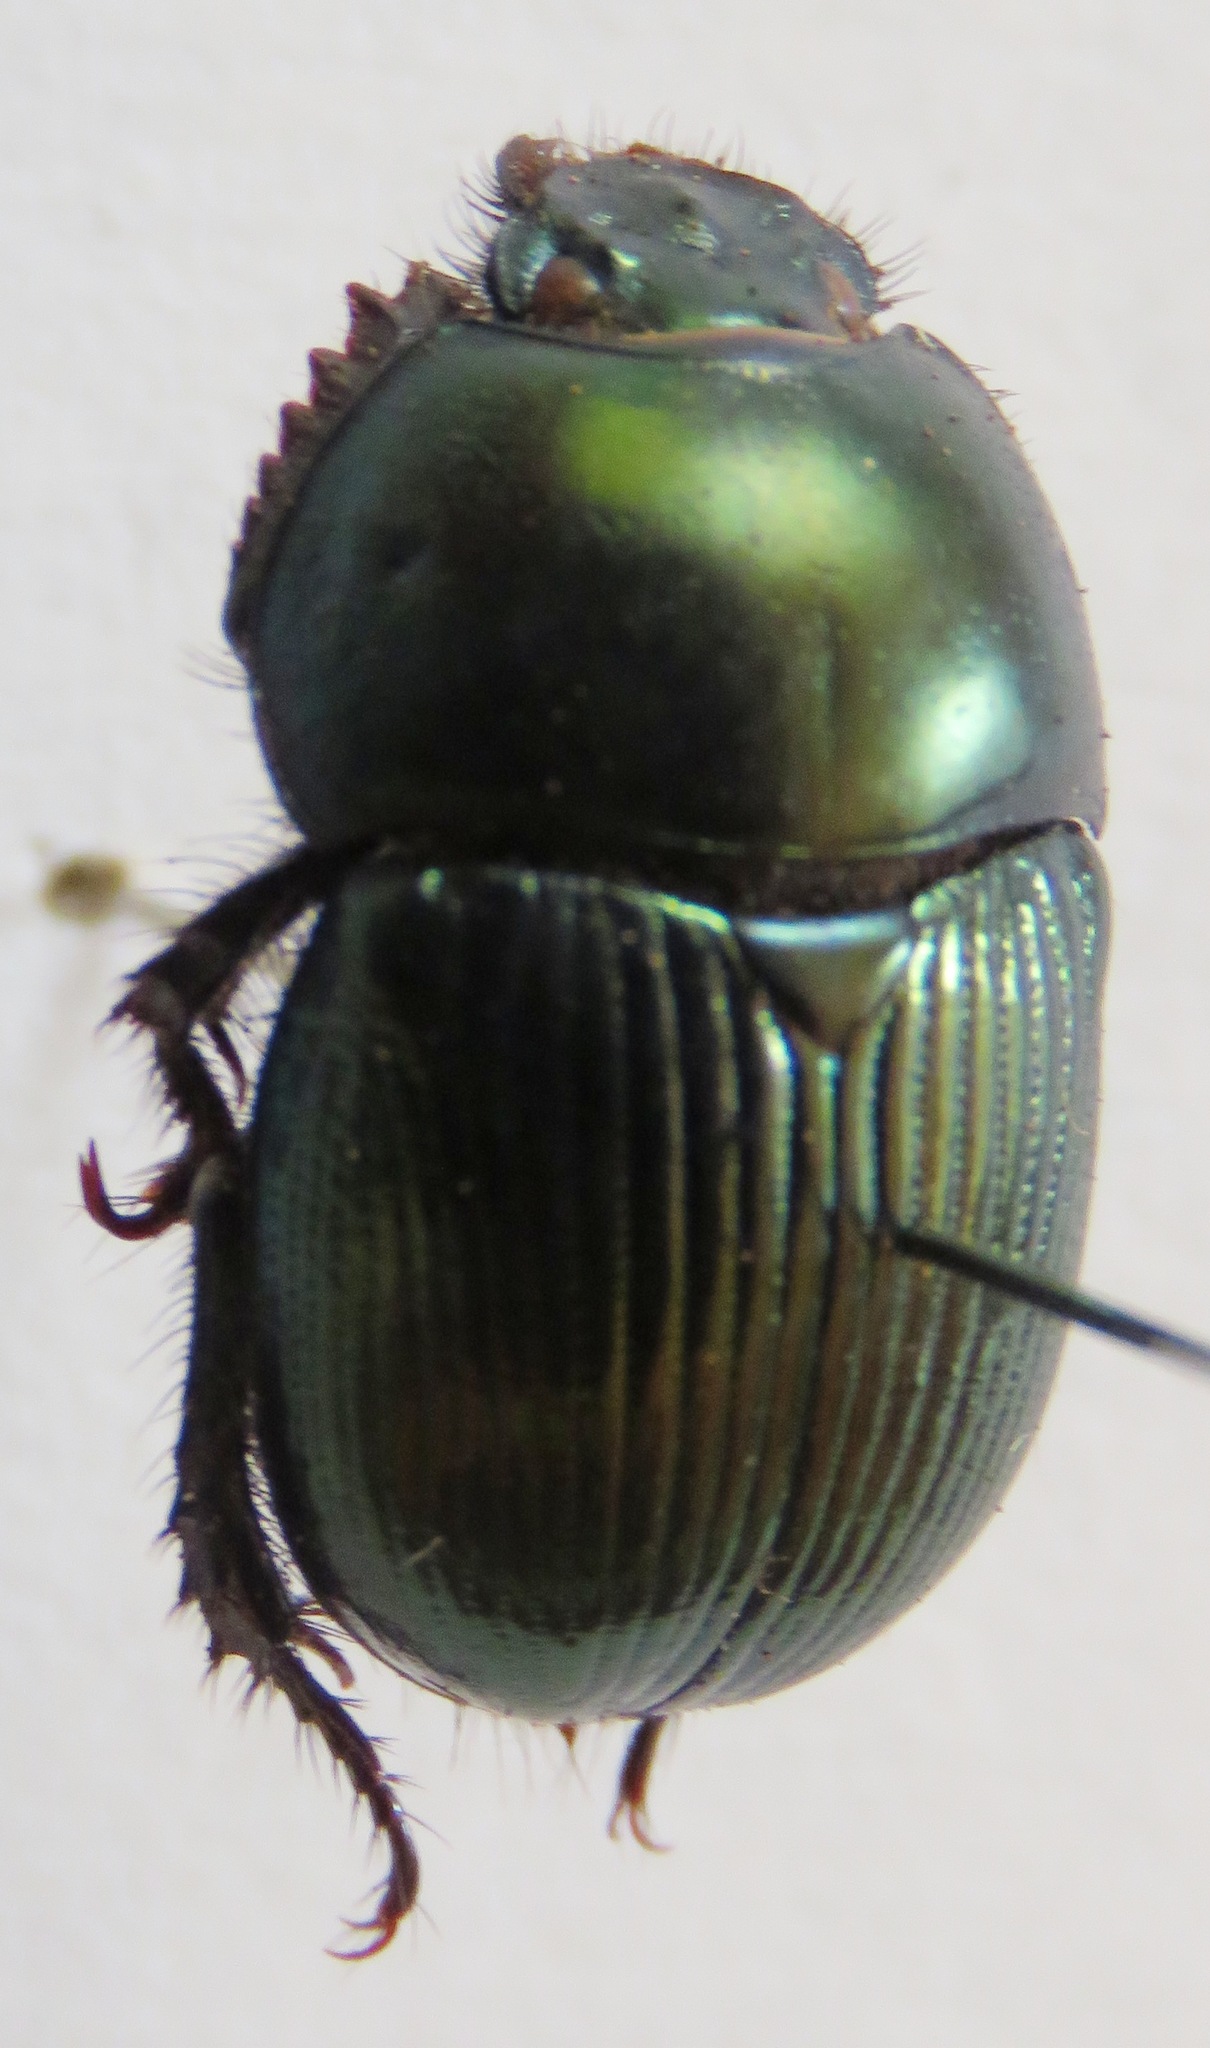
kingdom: Animalia
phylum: Arthropoda
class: Insecta
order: Coleoptera
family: Geotrupidae
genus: Geotrupes
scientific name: Geotrupes splendidus
